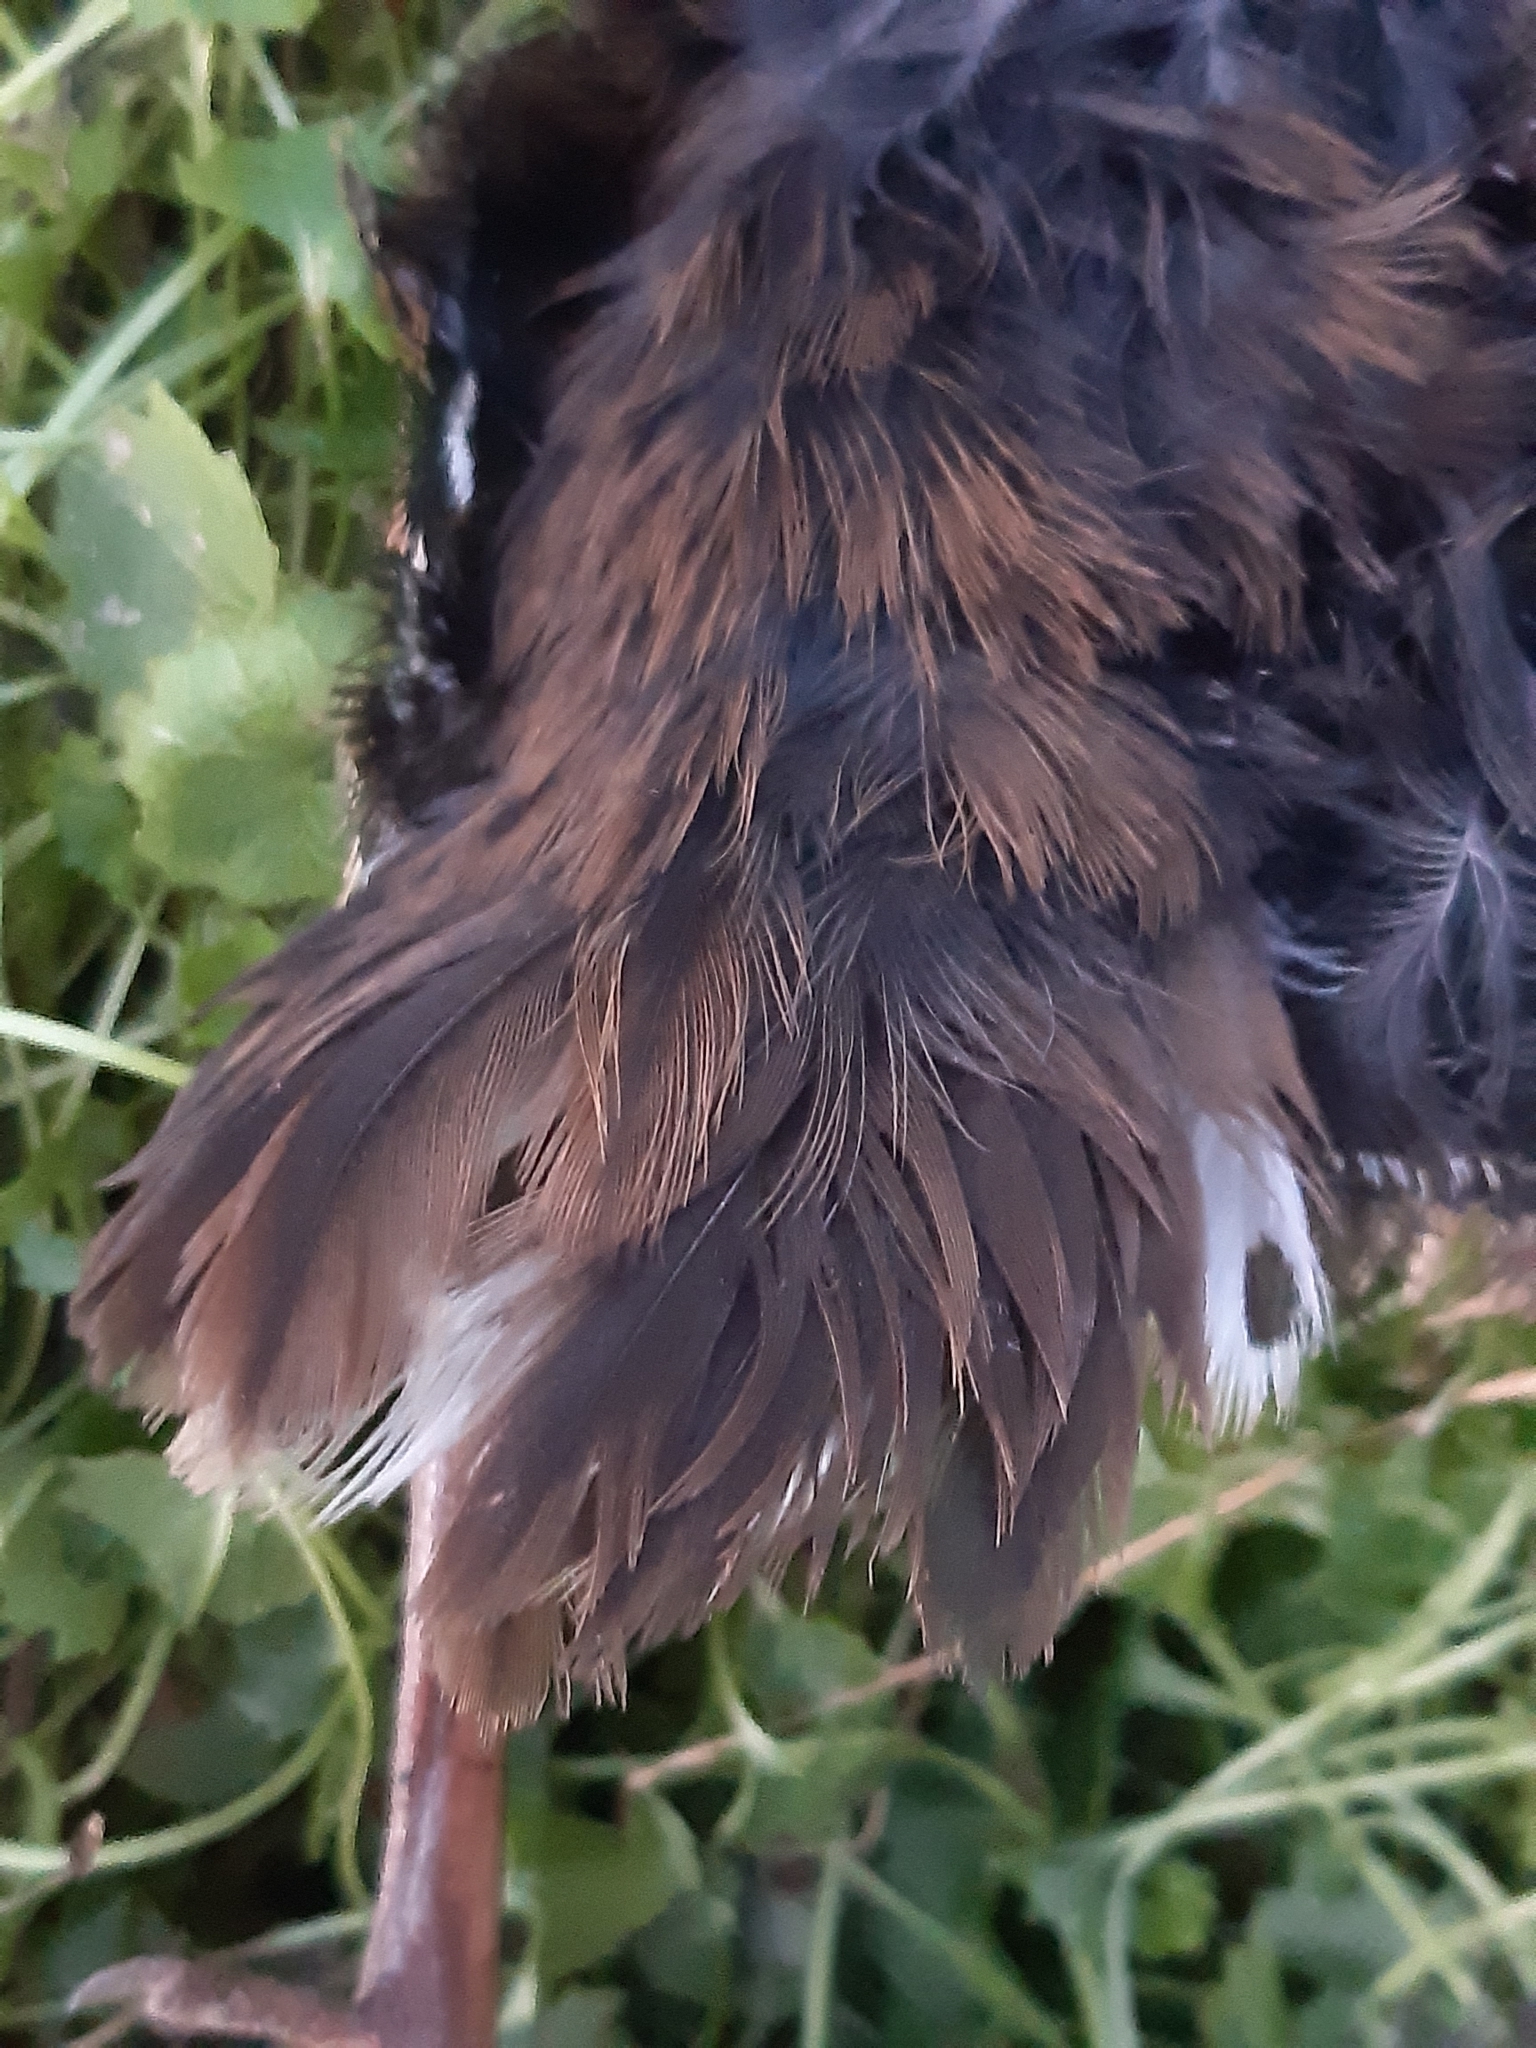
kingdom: Animalia
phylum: Chordata
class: Aves
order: Gruiformes
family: Rallidae
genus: Rallus
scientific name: Rallus aquaticus
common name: Water rail
